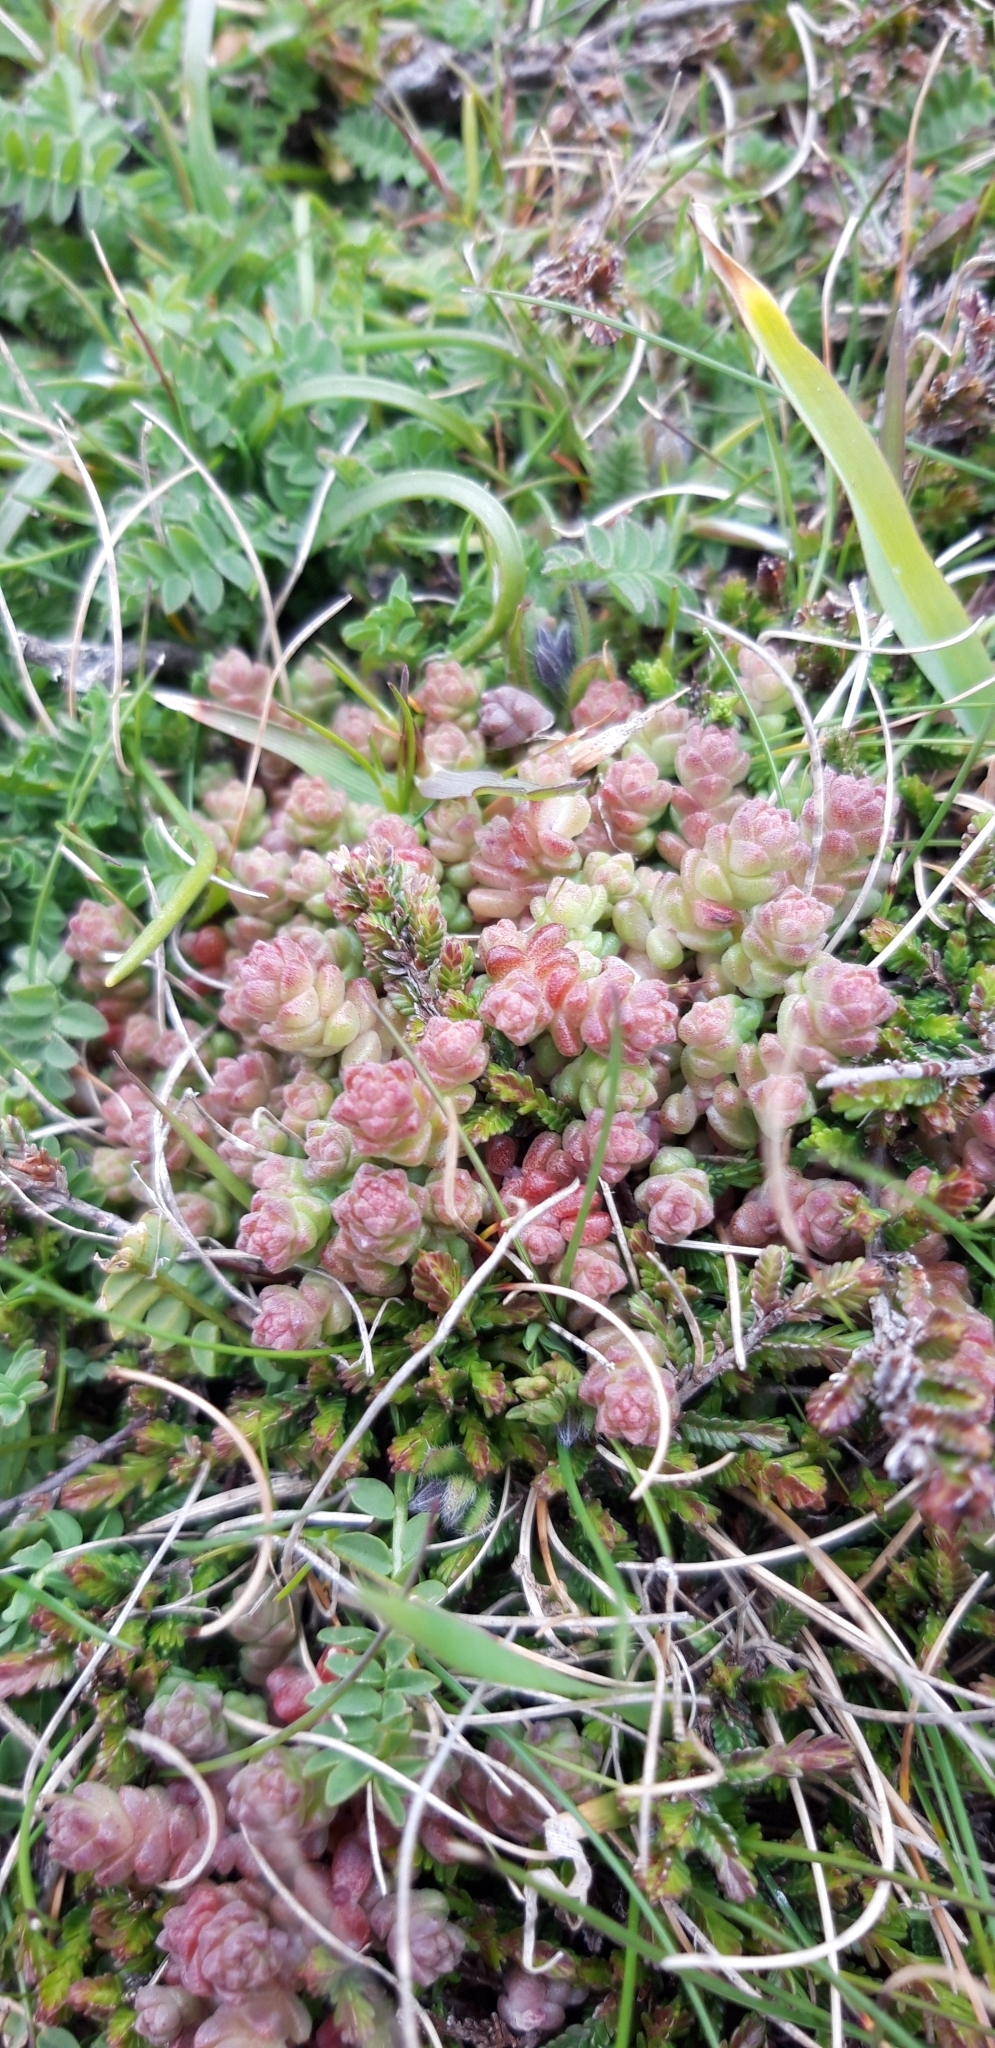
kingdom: Plantae
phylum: Tracheophyta
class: Magnoliopsida
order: Saxifragales
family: Crassulaceae
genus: Sedum
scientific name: Sedum anglicum
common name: English stonecrop
